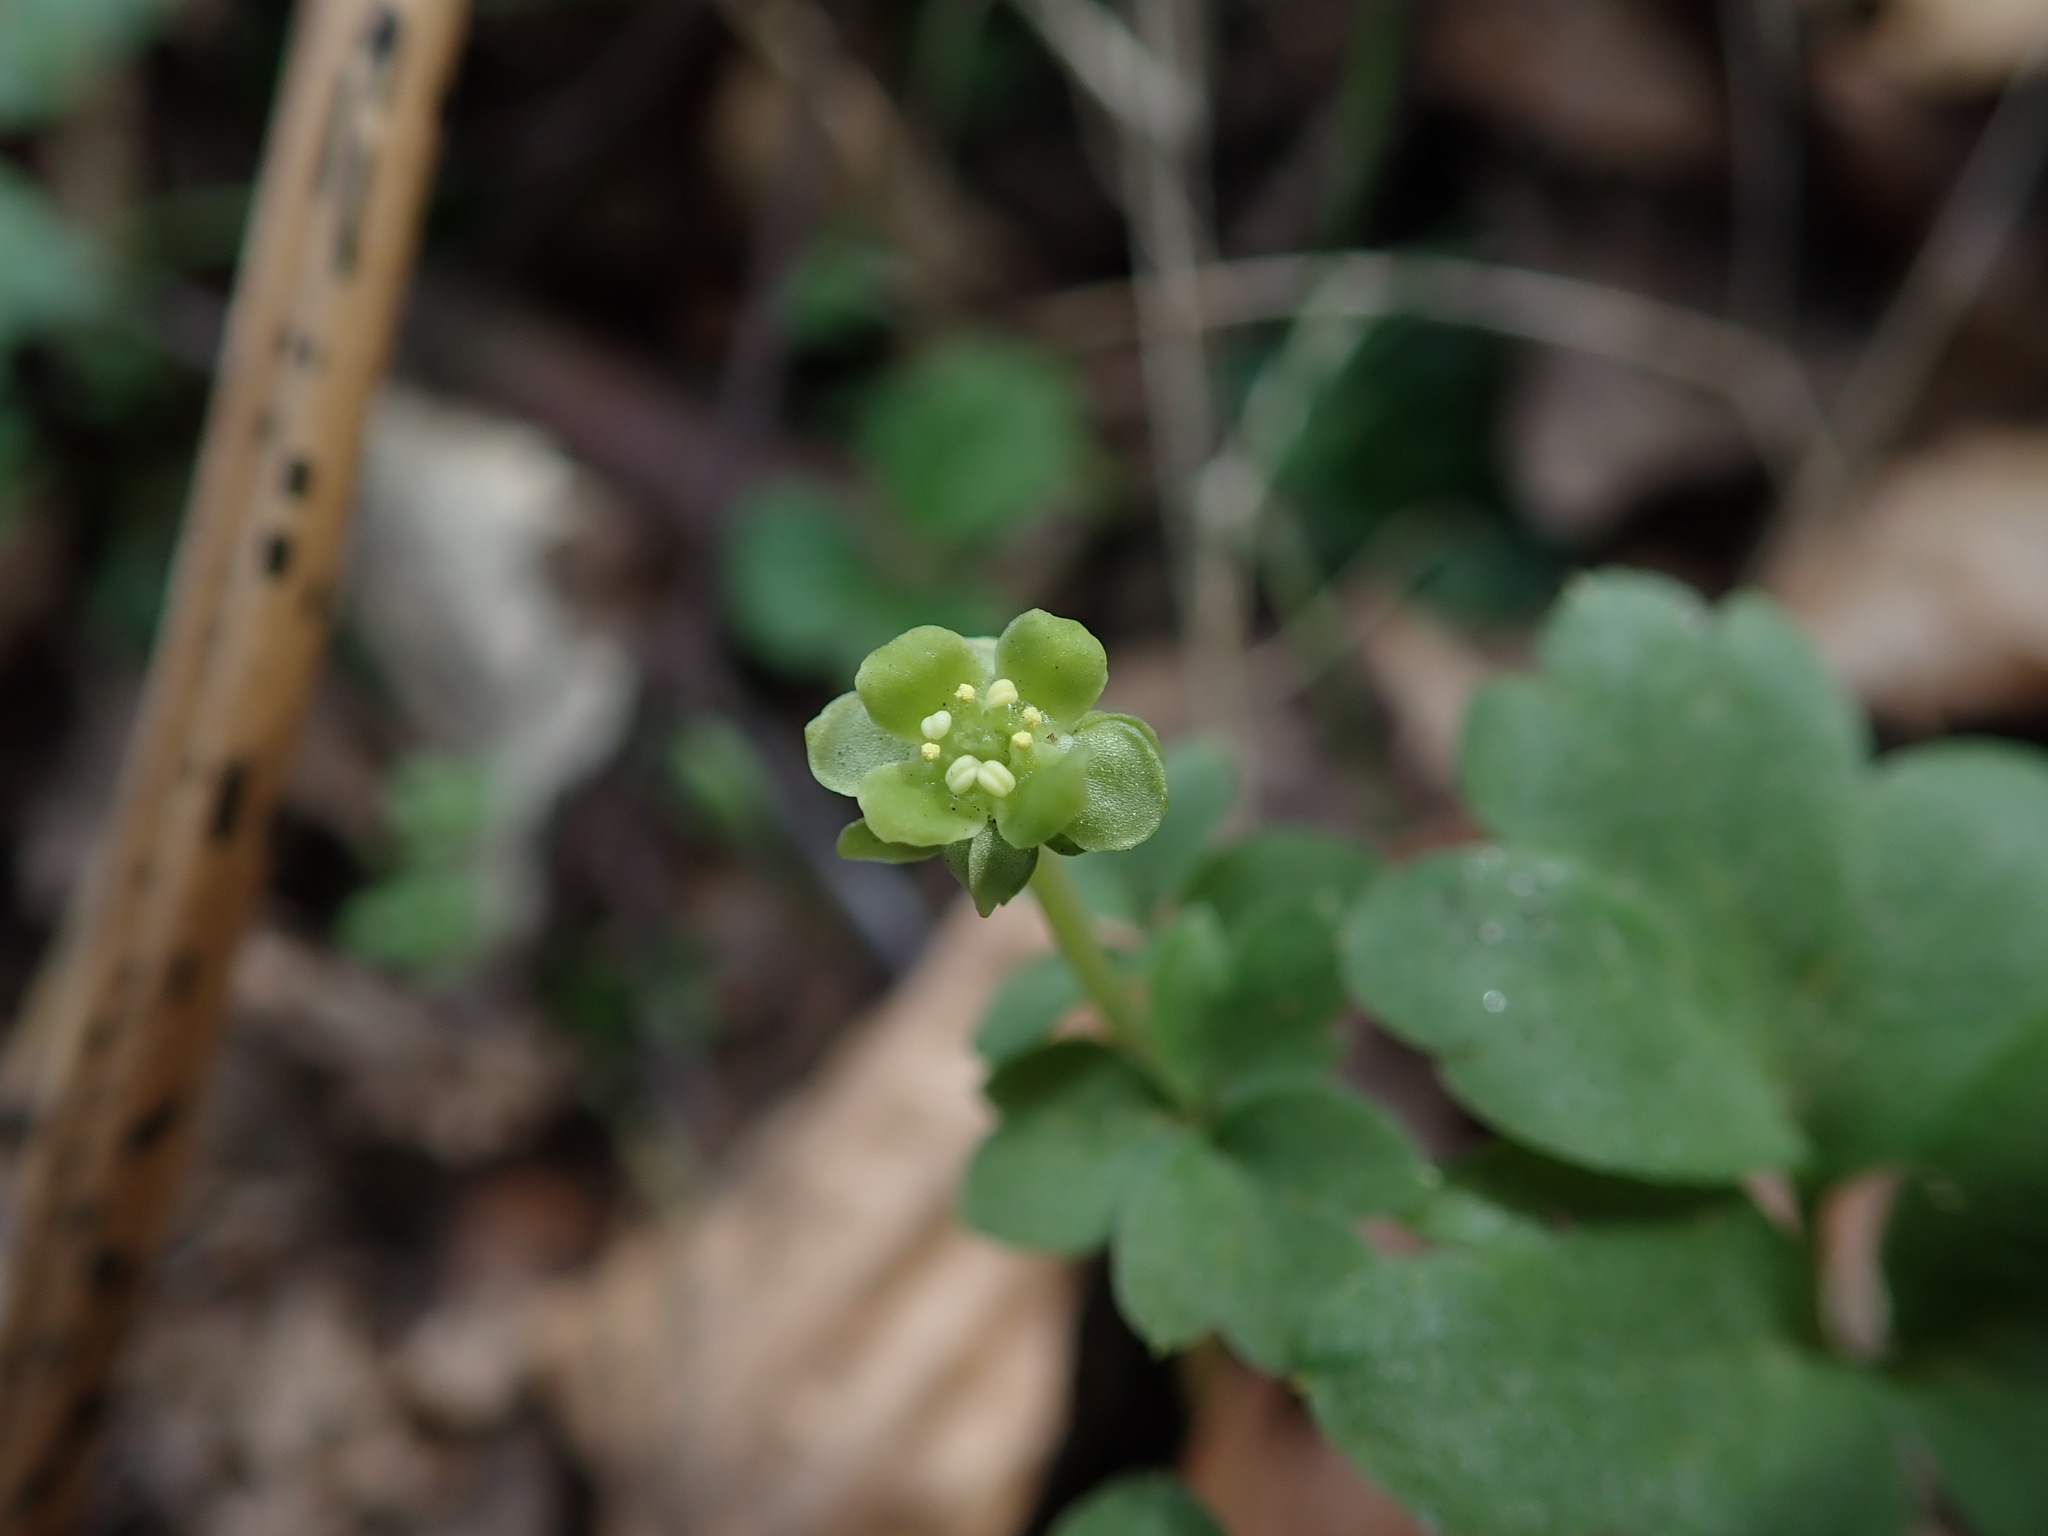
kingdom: Plantae
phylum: Tracheophyta
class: Magnoliopsida
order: Dipsacales
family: Viburnaceae
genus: Adoxa
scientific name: Adoxa moschatellina
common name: Moschatel
